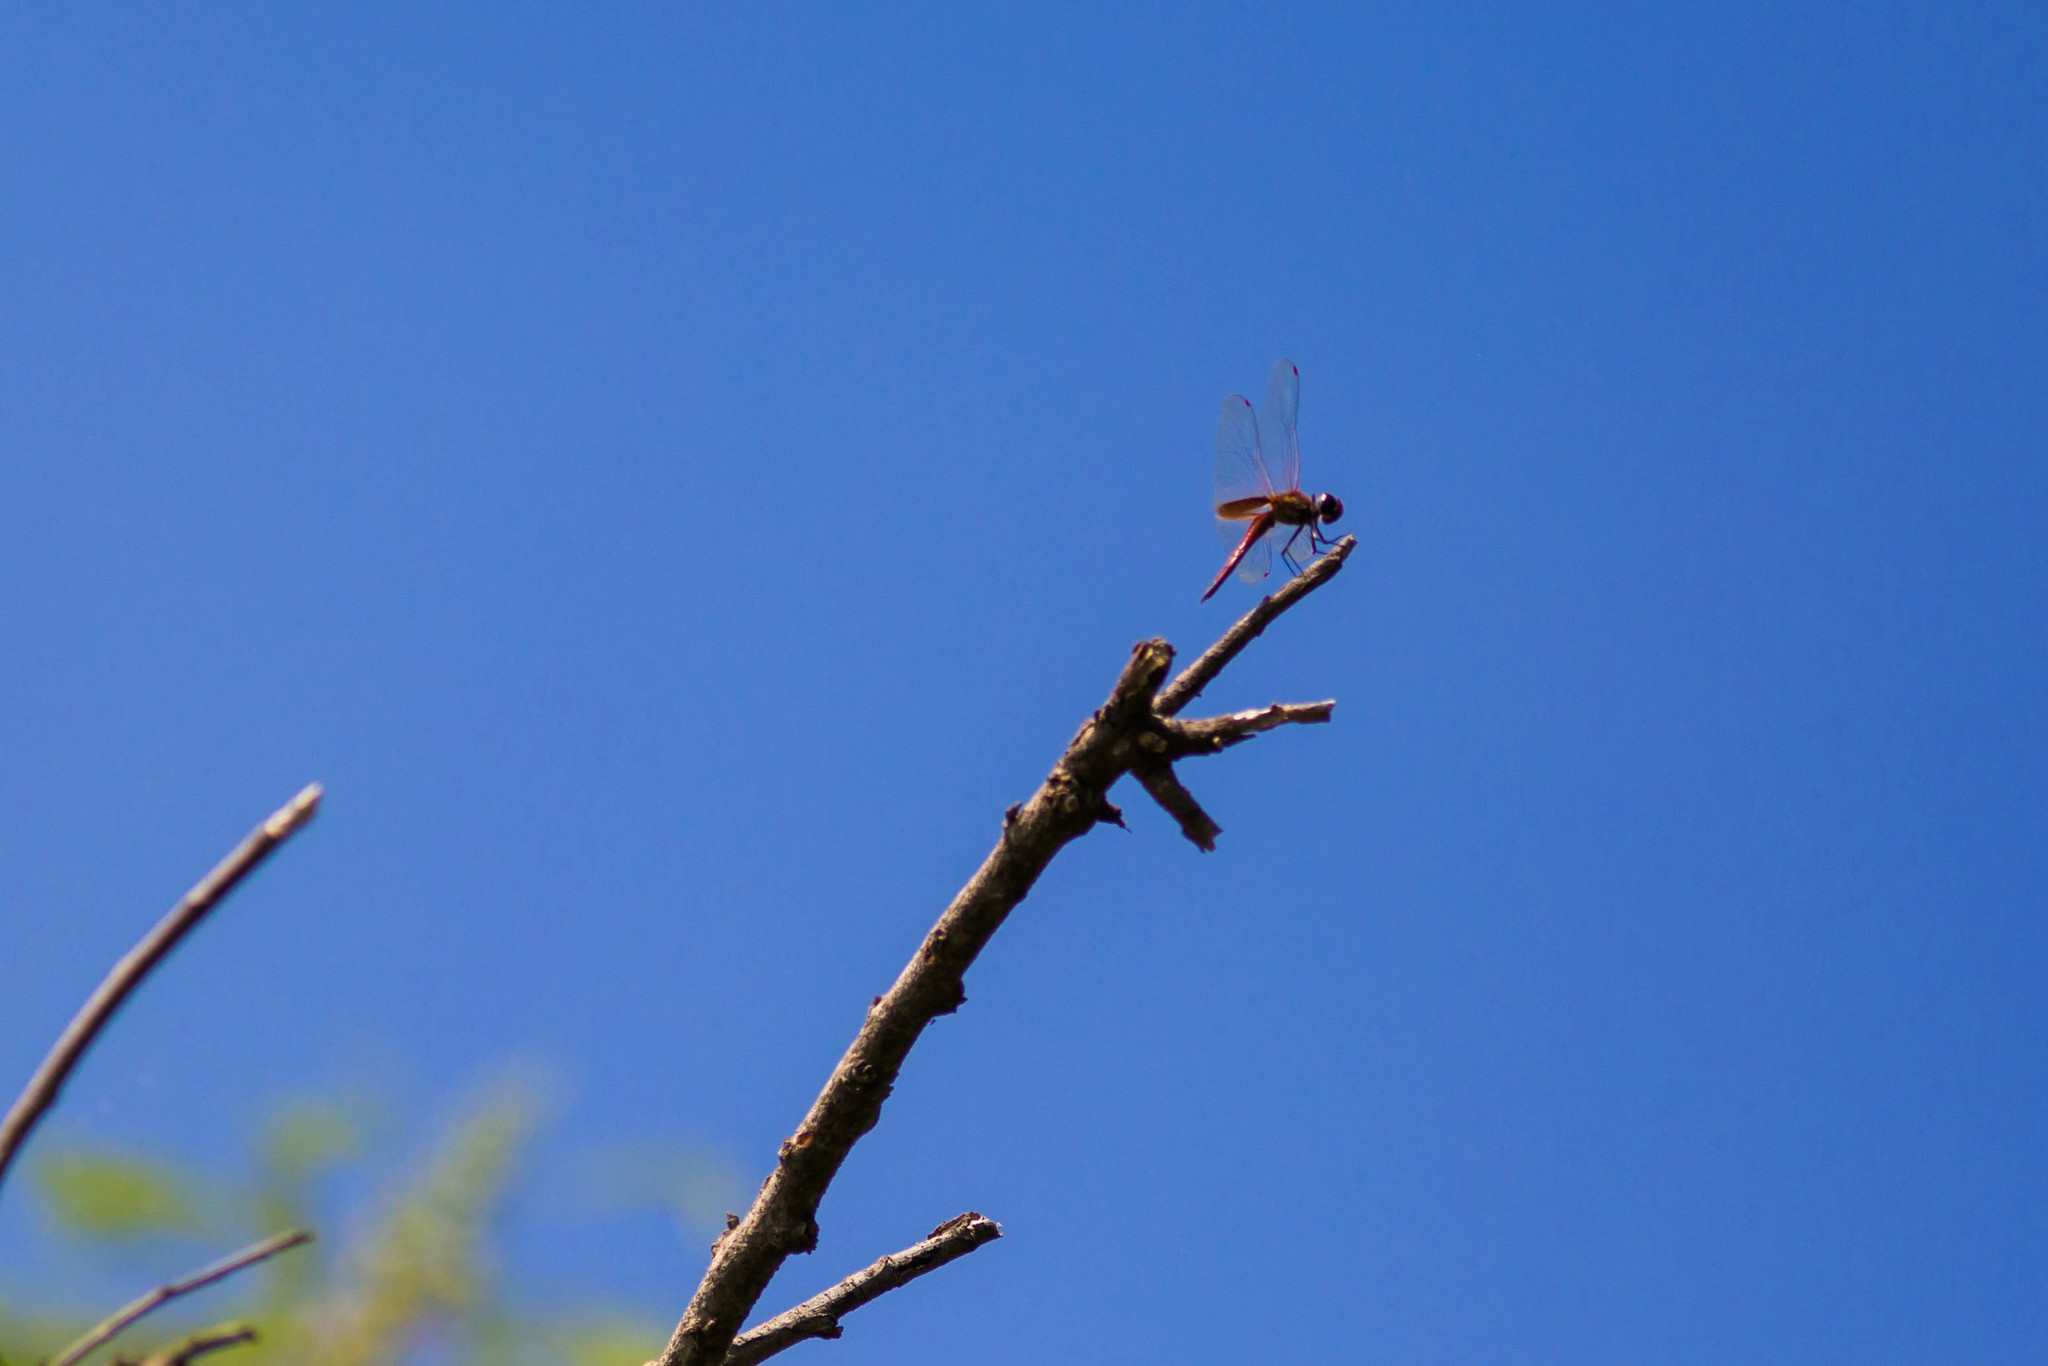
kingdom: Animalia
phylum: Arthropoda
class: Insecta
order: Odonata
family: Libellulidae
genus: Tramea
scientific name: Tramea darwini
